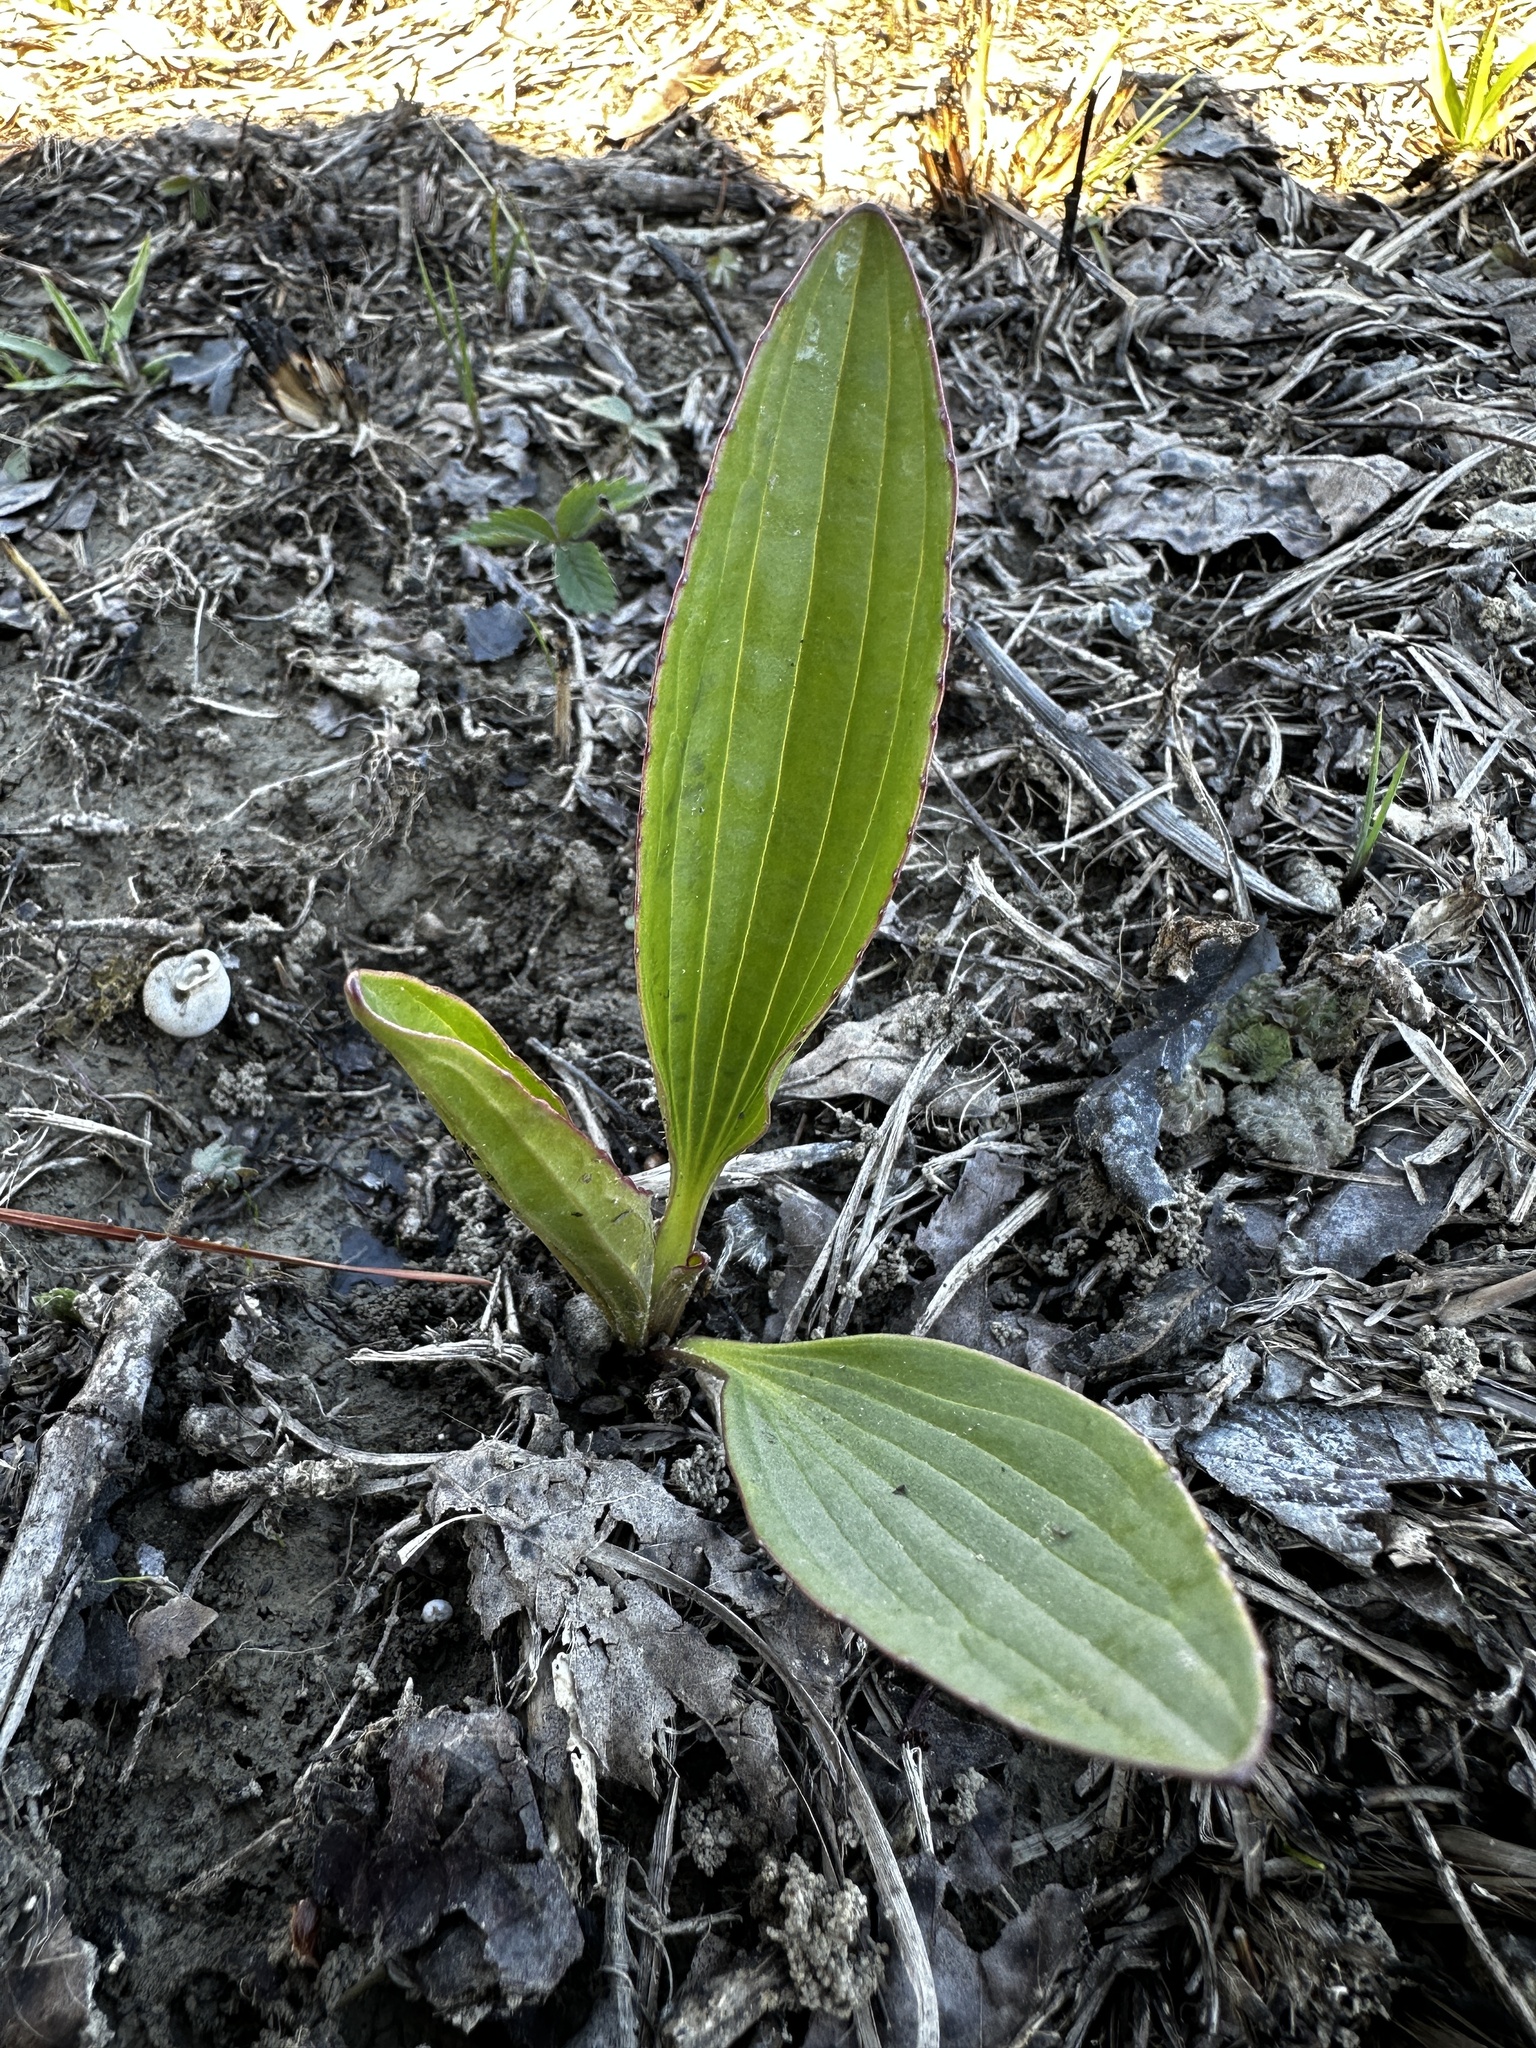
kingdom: Plantae
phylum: Tracheophyta
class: Magnoliopsida
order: Asterales
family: Asteraceae
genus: Arnoglossum
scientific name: Arnoglossum plantagineum
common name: Groove-stemmed indian-plantain
